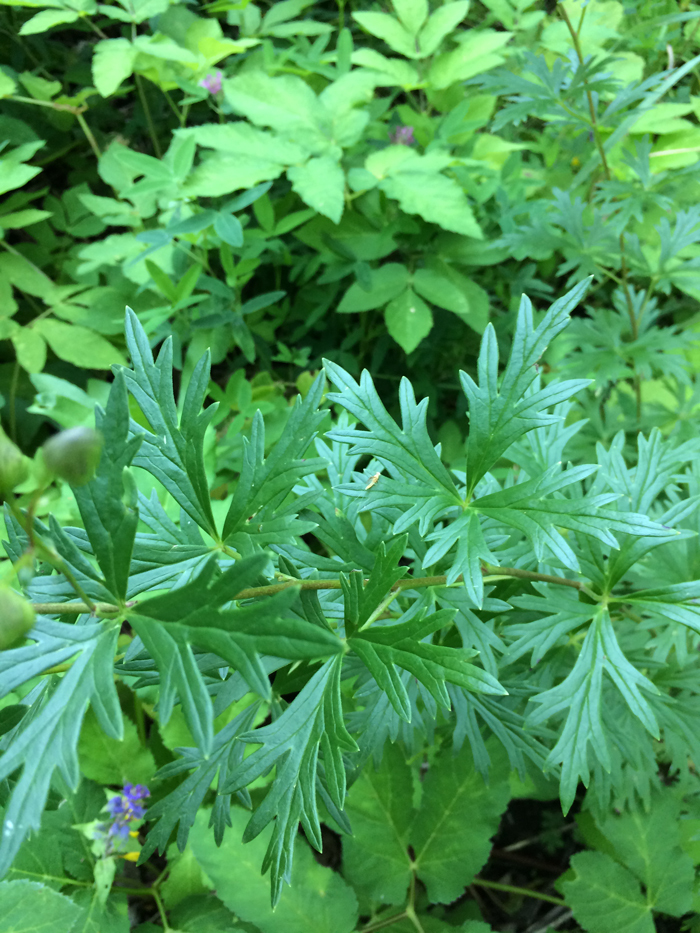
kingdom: Plantae
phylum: Tracheophyta
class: Magnoliopsida
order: Ranunculales
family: Ranunculaceae
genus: Aconitum
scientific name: Aconitum cammarum
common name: Hybrid monk's-hood
